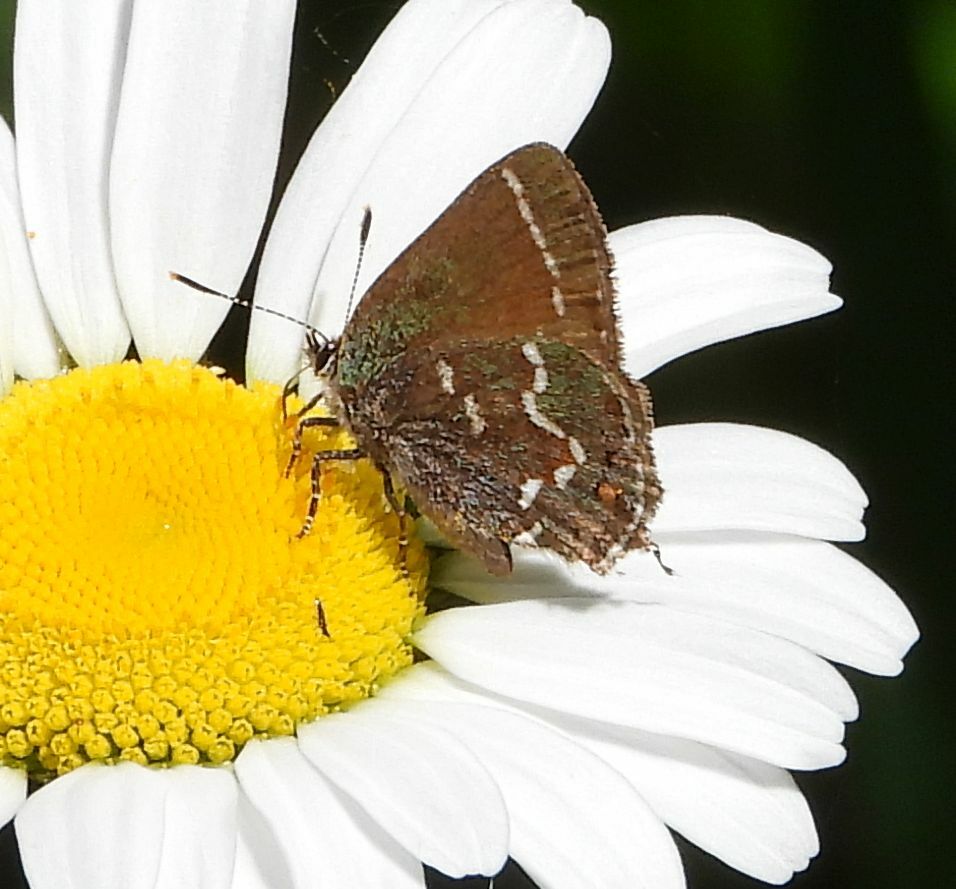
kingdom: Animalia
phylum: Arthropoda
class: Insecta
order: Lepidoptera
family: Lycaenidae
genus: Mitoura
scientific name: Mitoura gryneus
